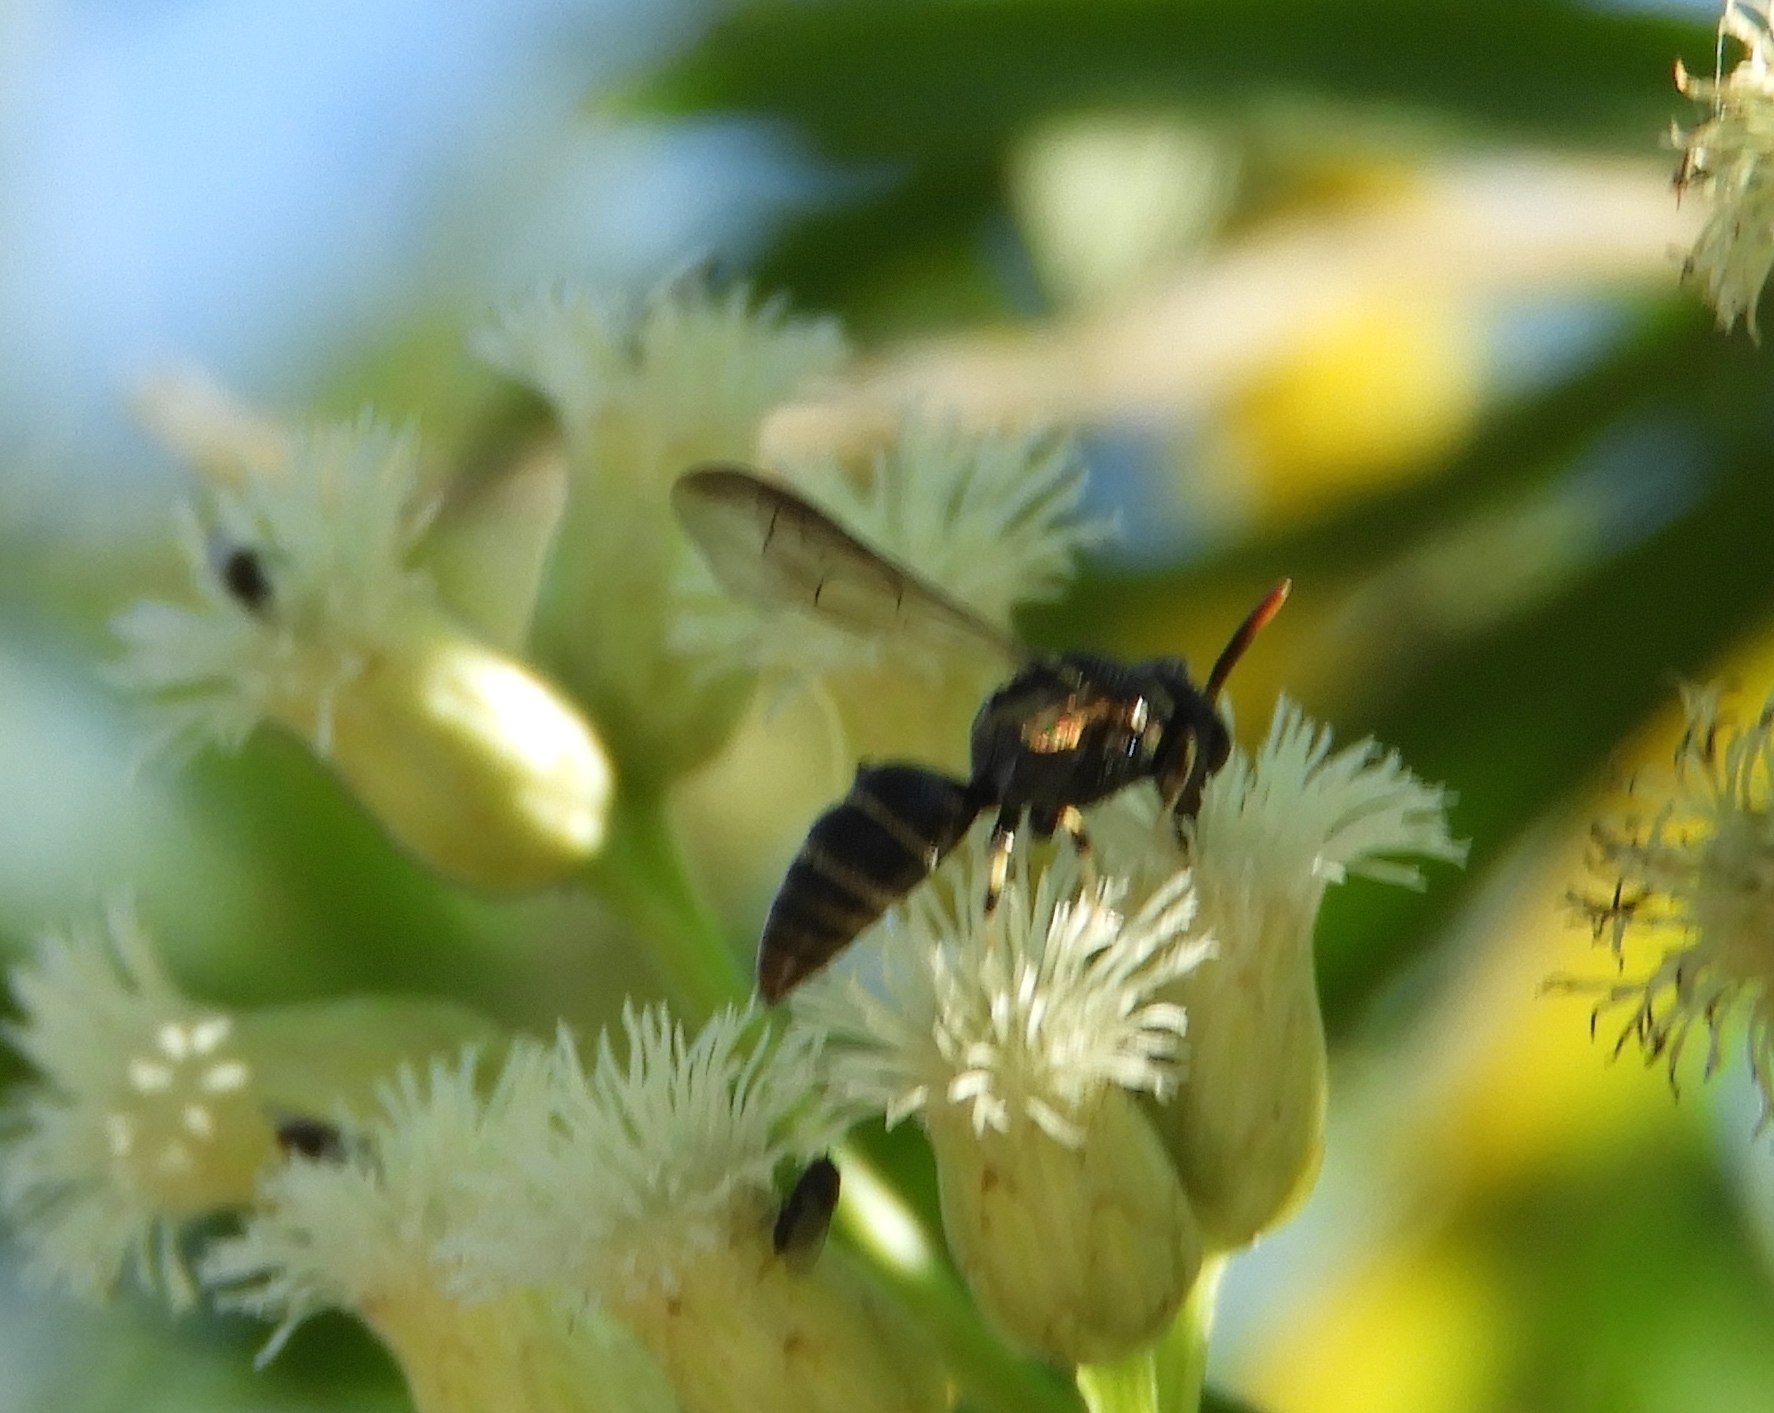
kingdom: Animalia
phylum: Arthropoda
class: Insecta
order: Hymenoptera
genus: Hylaeopsis
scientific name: Hylaeopsis
